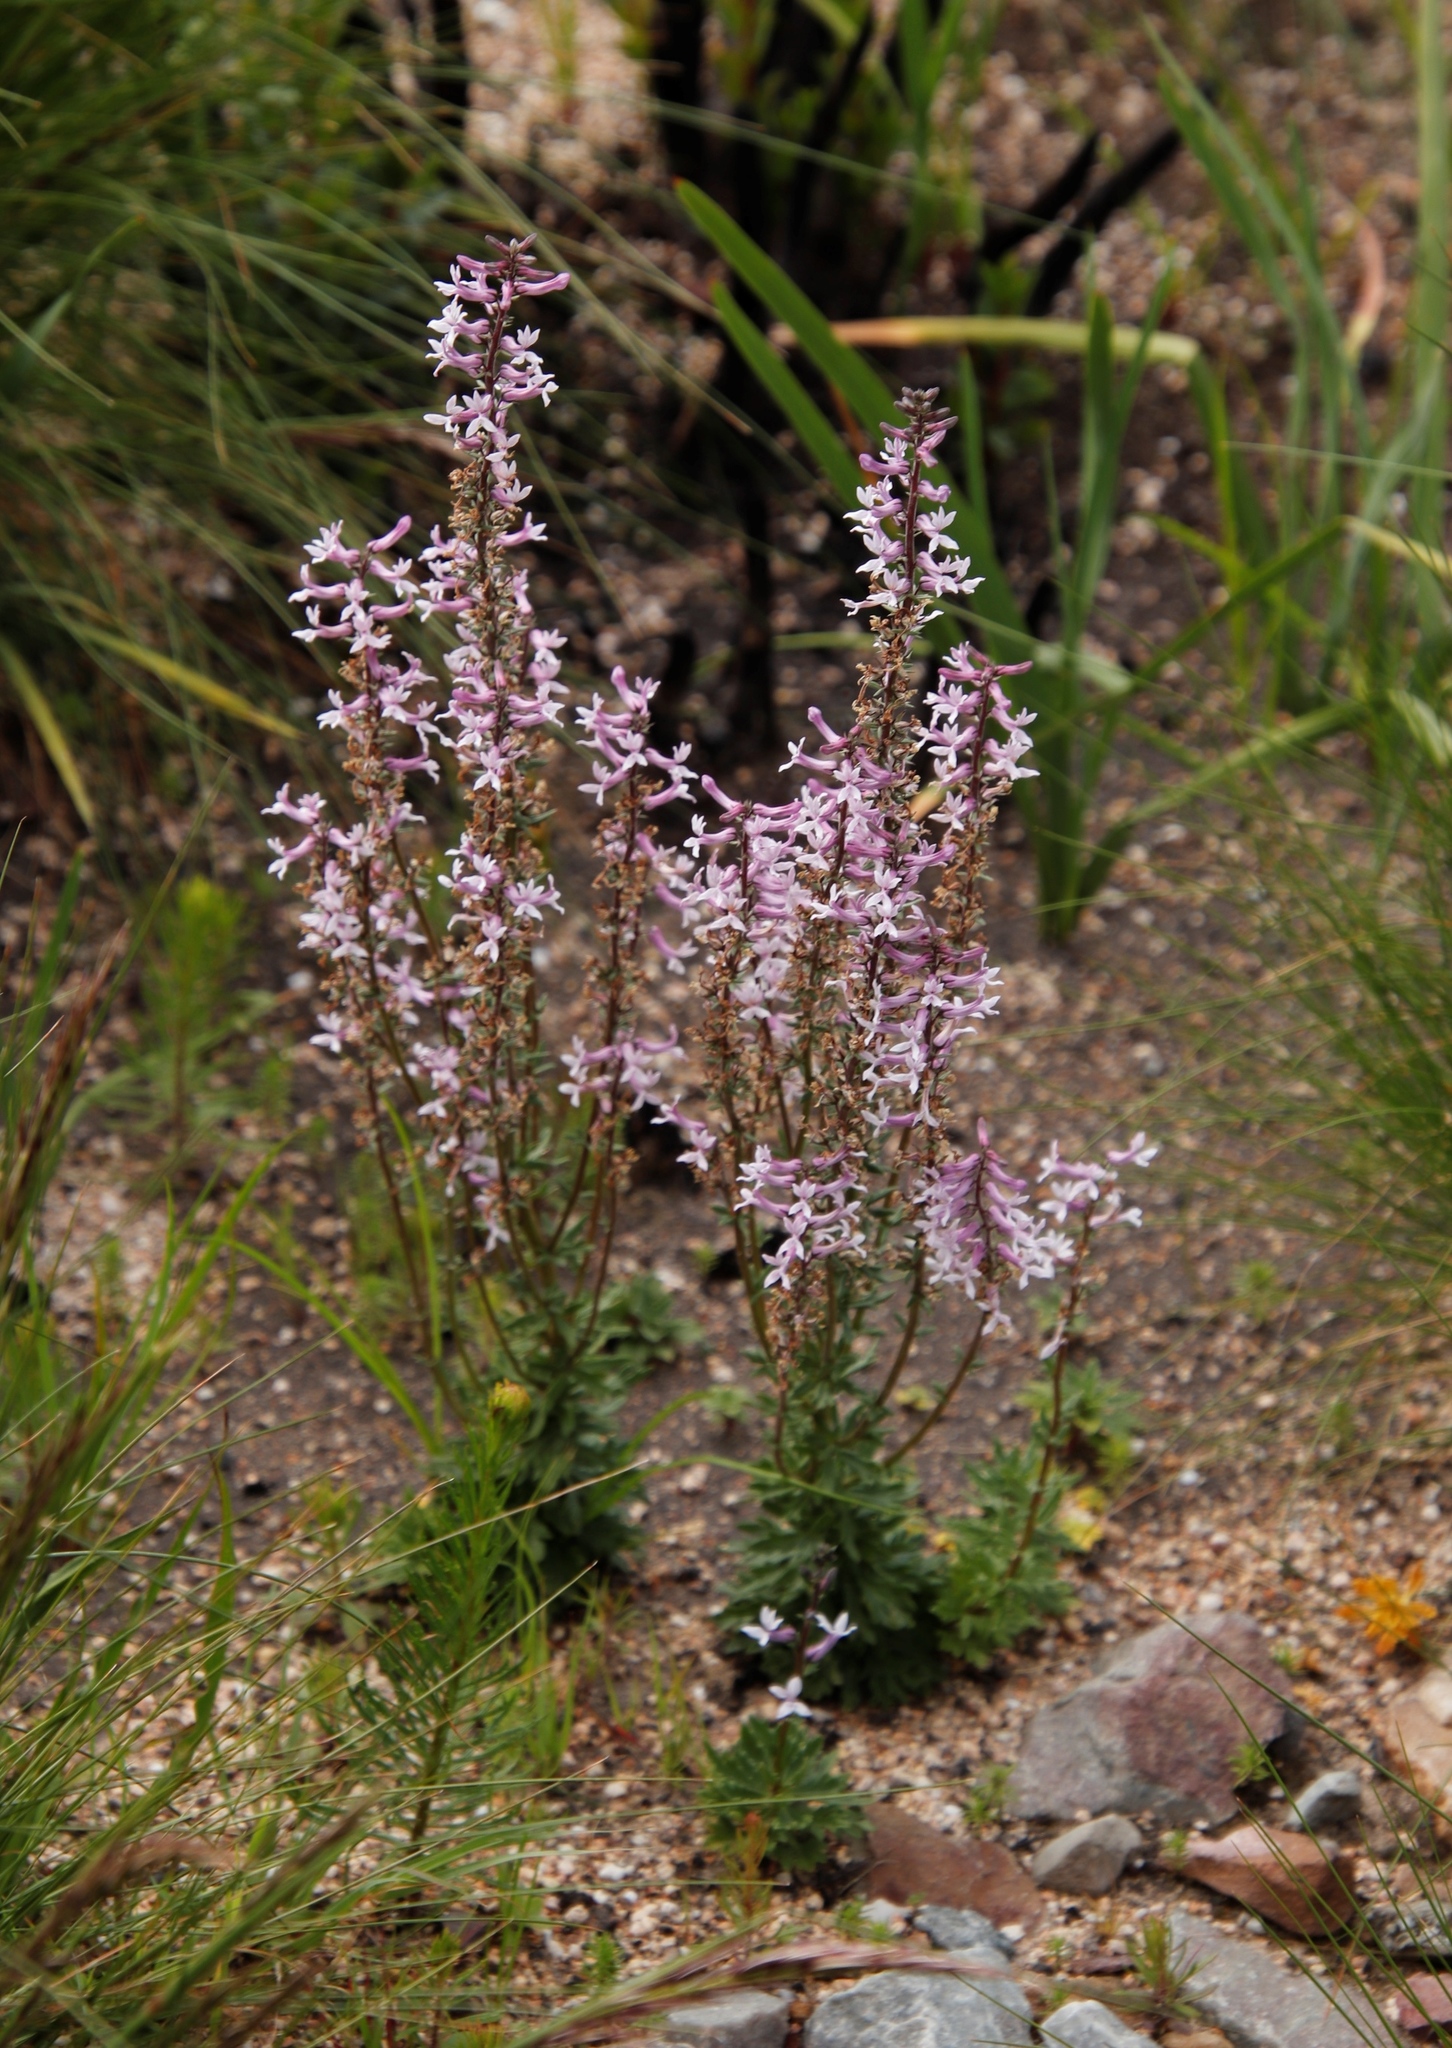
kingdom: Plantae
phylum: Tracheophyta
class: Magnoliopsida
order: Asterales
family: Campanulaceae
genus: Cyphia
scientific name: Cyphia bulbosa
